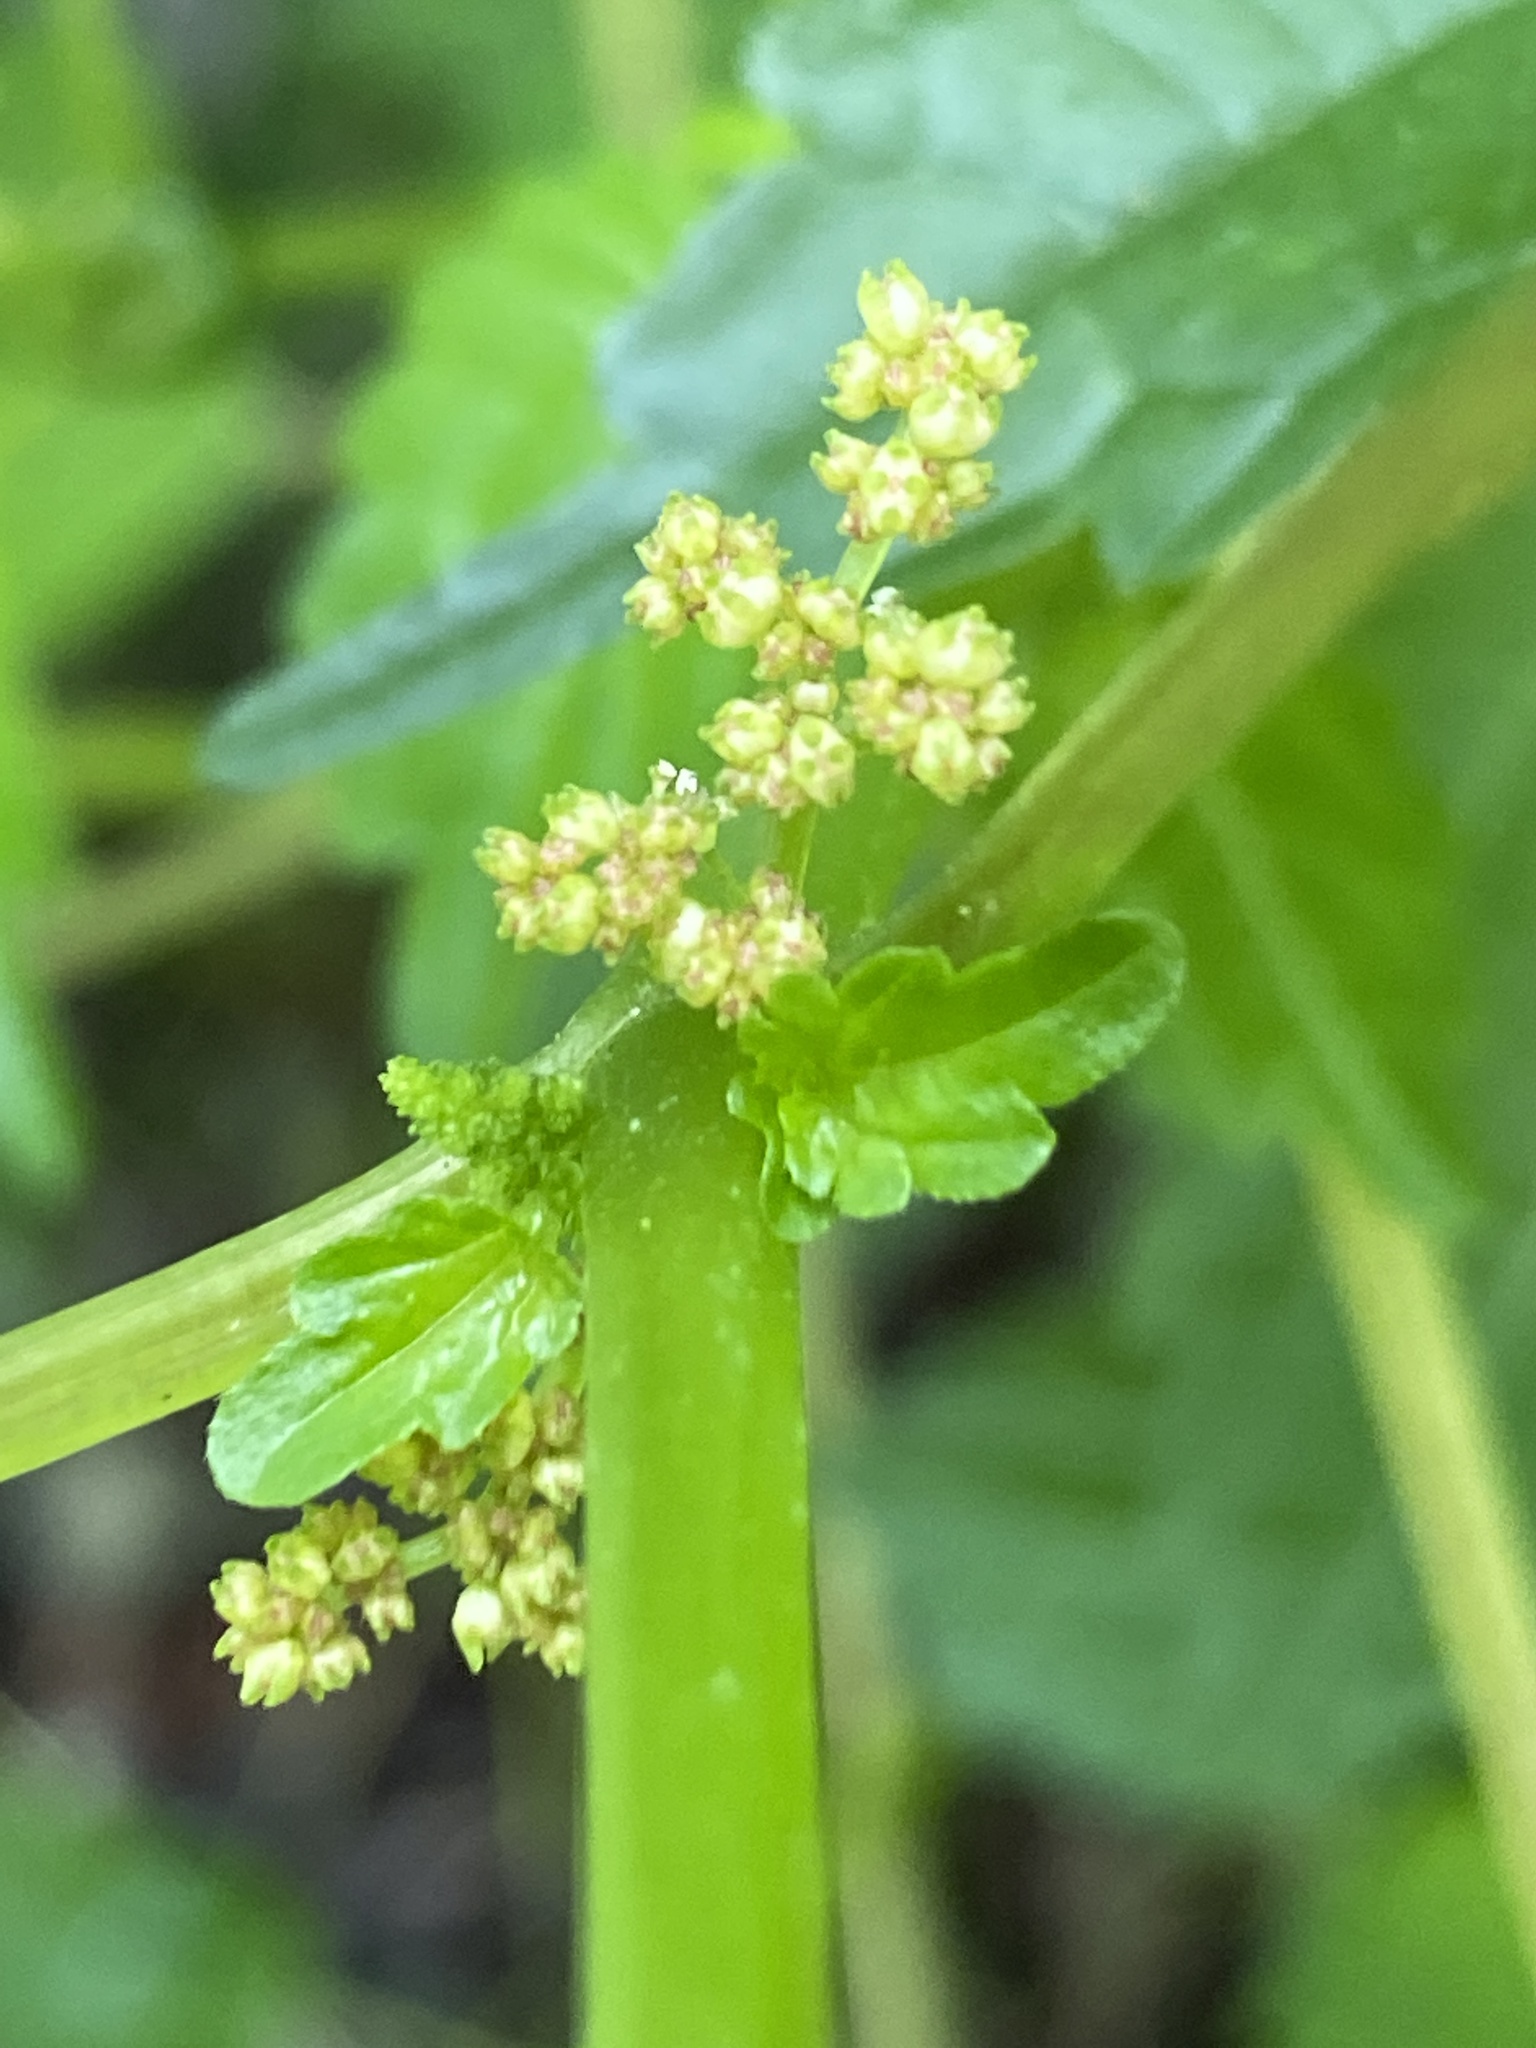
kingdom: Plantae
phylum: Tracheophyta
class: Magnoliopsida
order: Rosales
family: Urticaceae
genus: Pilea
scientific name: Pilea pumila
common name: Clearweed
